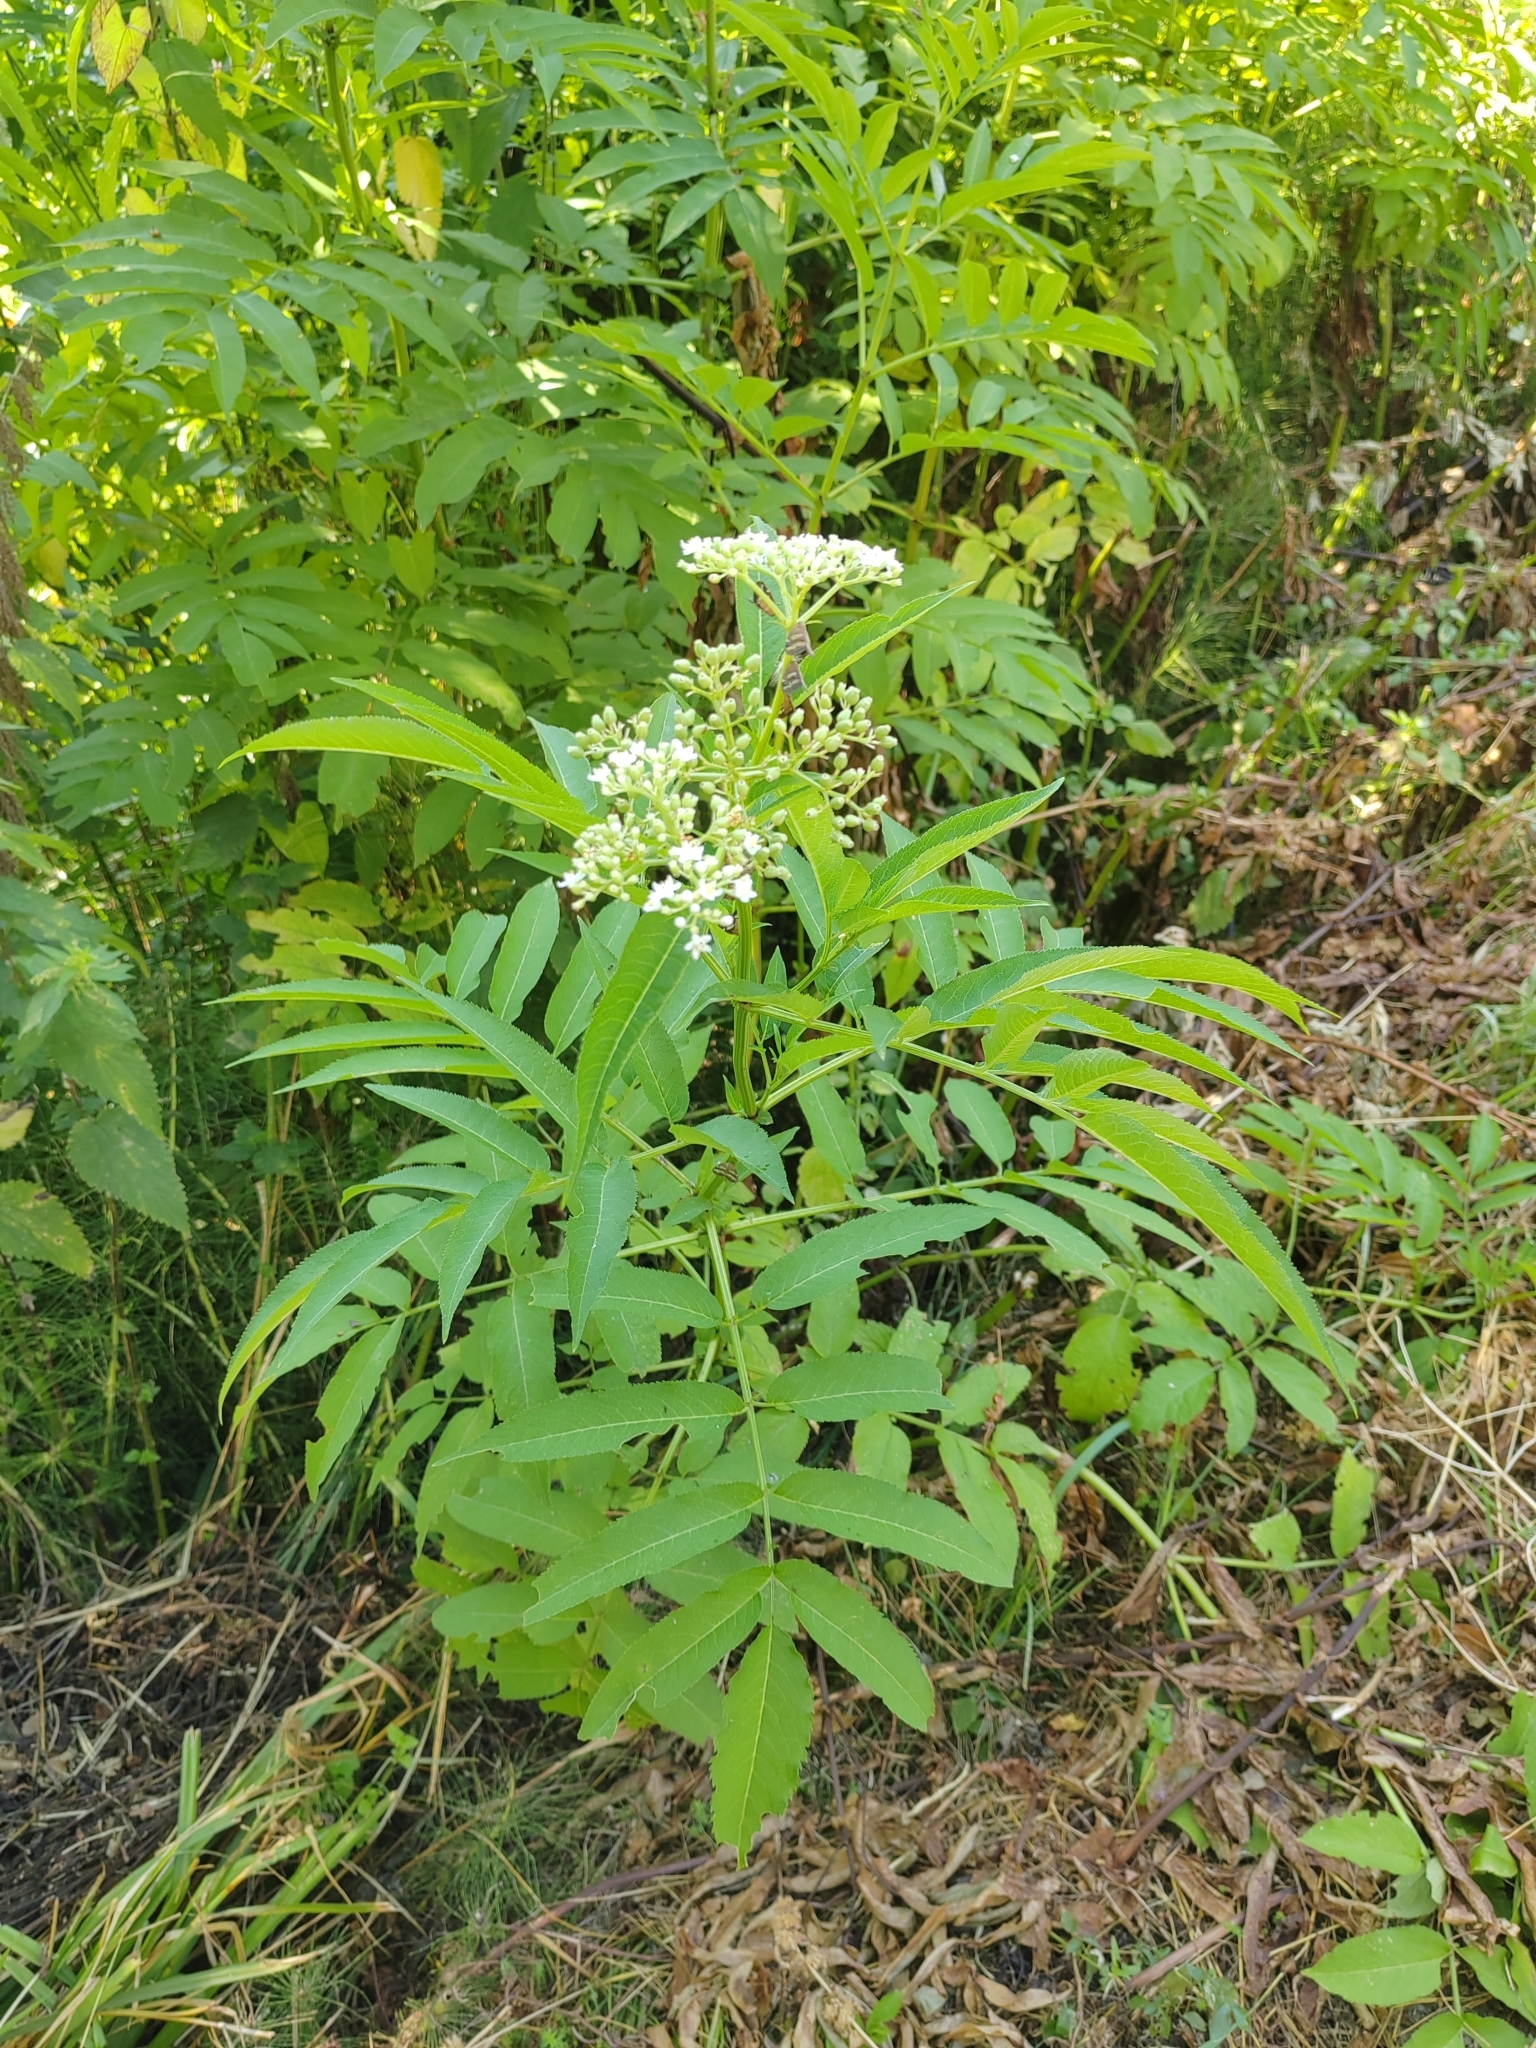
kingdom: Plantae
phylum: Tracheophyta
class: Magnoliopsida
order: Dipsacales
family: Viburnaceae
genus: Sambucus
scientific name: Sambucus ebulus
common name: Dwarf elder
